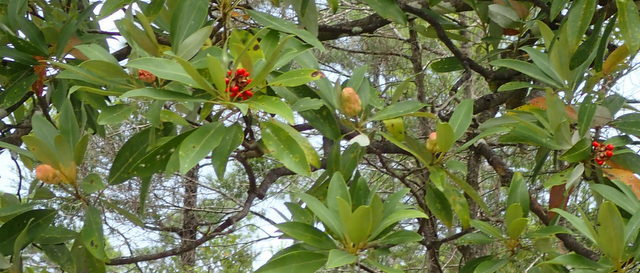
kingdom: Plantae
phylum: Tracheophyta
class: Magnoliopsida
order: Magnoliales
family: Magnoliaceae
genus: Magnolia
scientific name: Magnolia virginiana
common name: Swamp bay
